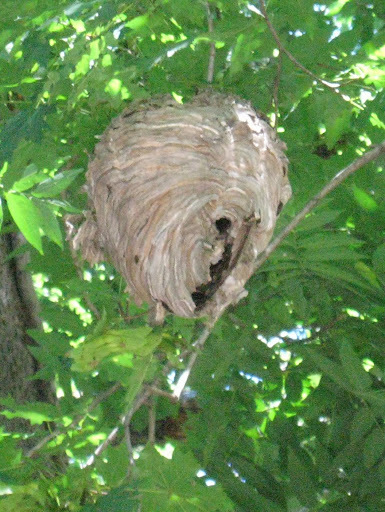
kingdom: Animalia
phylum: Arthropoda
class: Insecta
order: Hymenoptera
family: Vespidae
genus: Dolichovespula
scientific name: Dolichovespula
